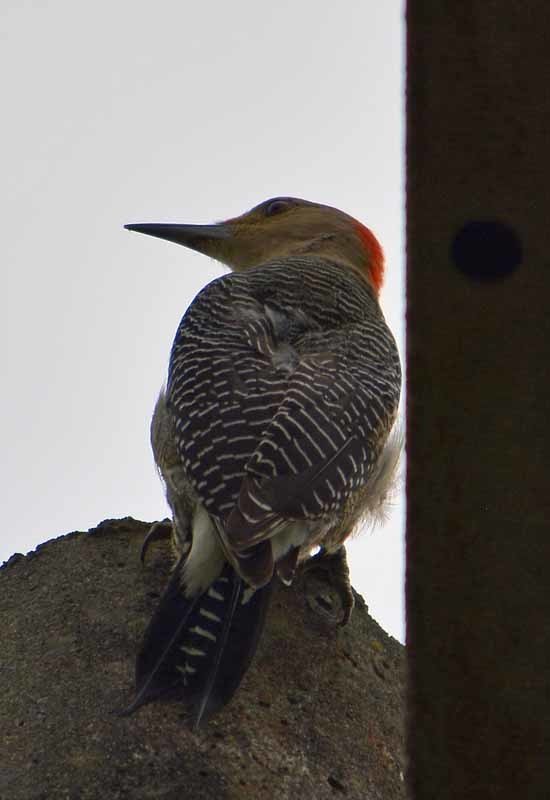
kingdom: Animalia
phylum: Chordata
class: Aves
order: Piciformes
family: Picidae
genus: Melanerpes
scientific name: Melanerpes aurifrons
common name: Golden-fronted woodpecker
